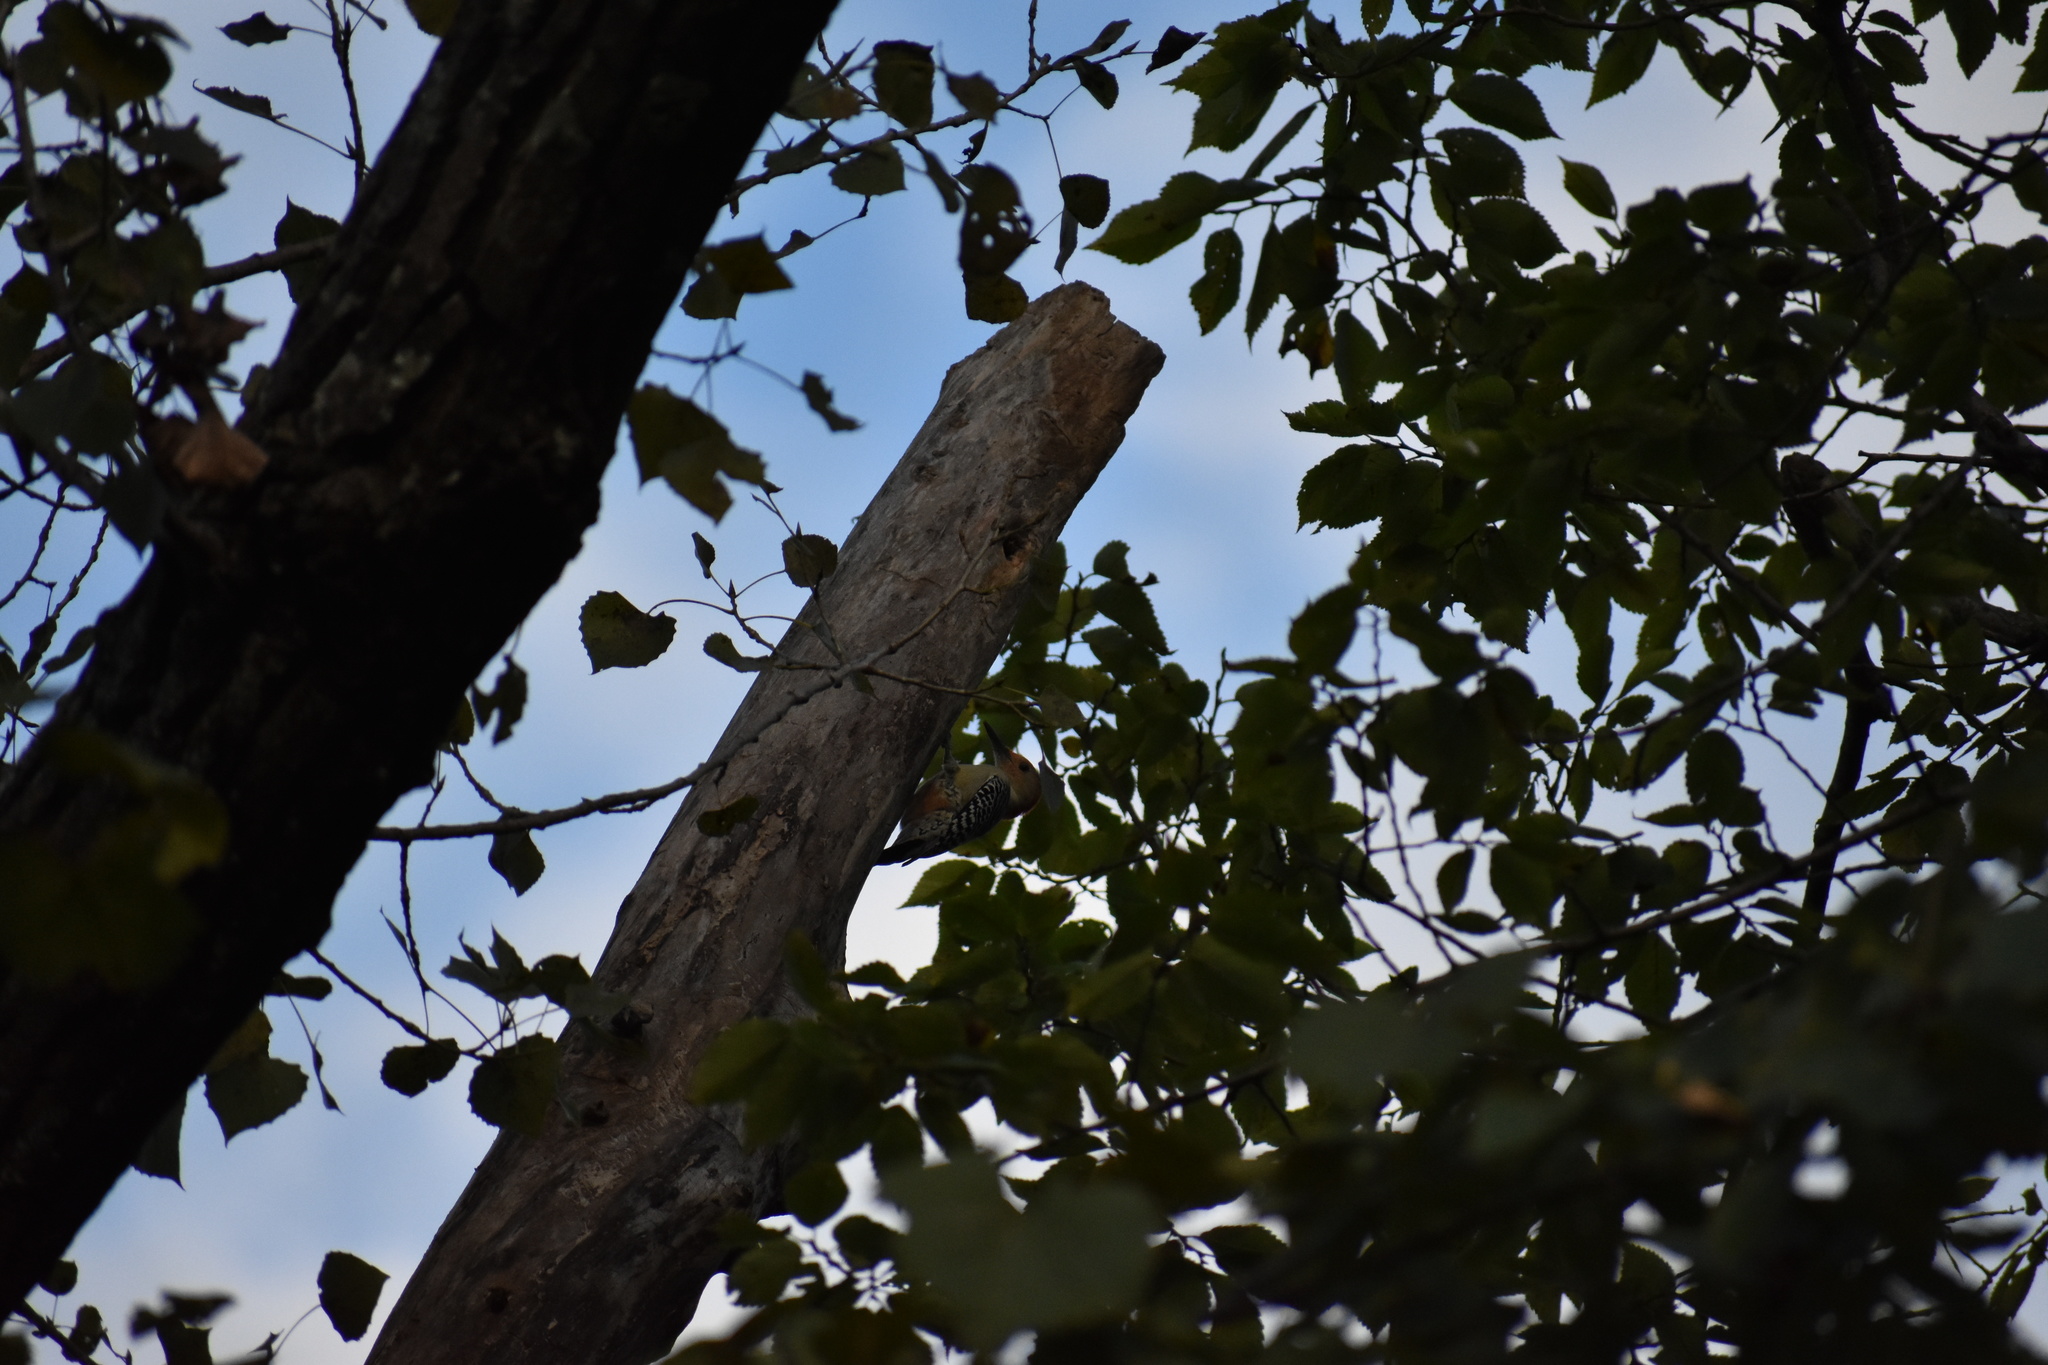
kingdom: Animalia
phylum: Chordata
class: Aves
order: Piciformes
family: Picidae
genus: Melanerpes
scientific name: Melanerpes carolinus
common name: Red-bellied woodpecker
